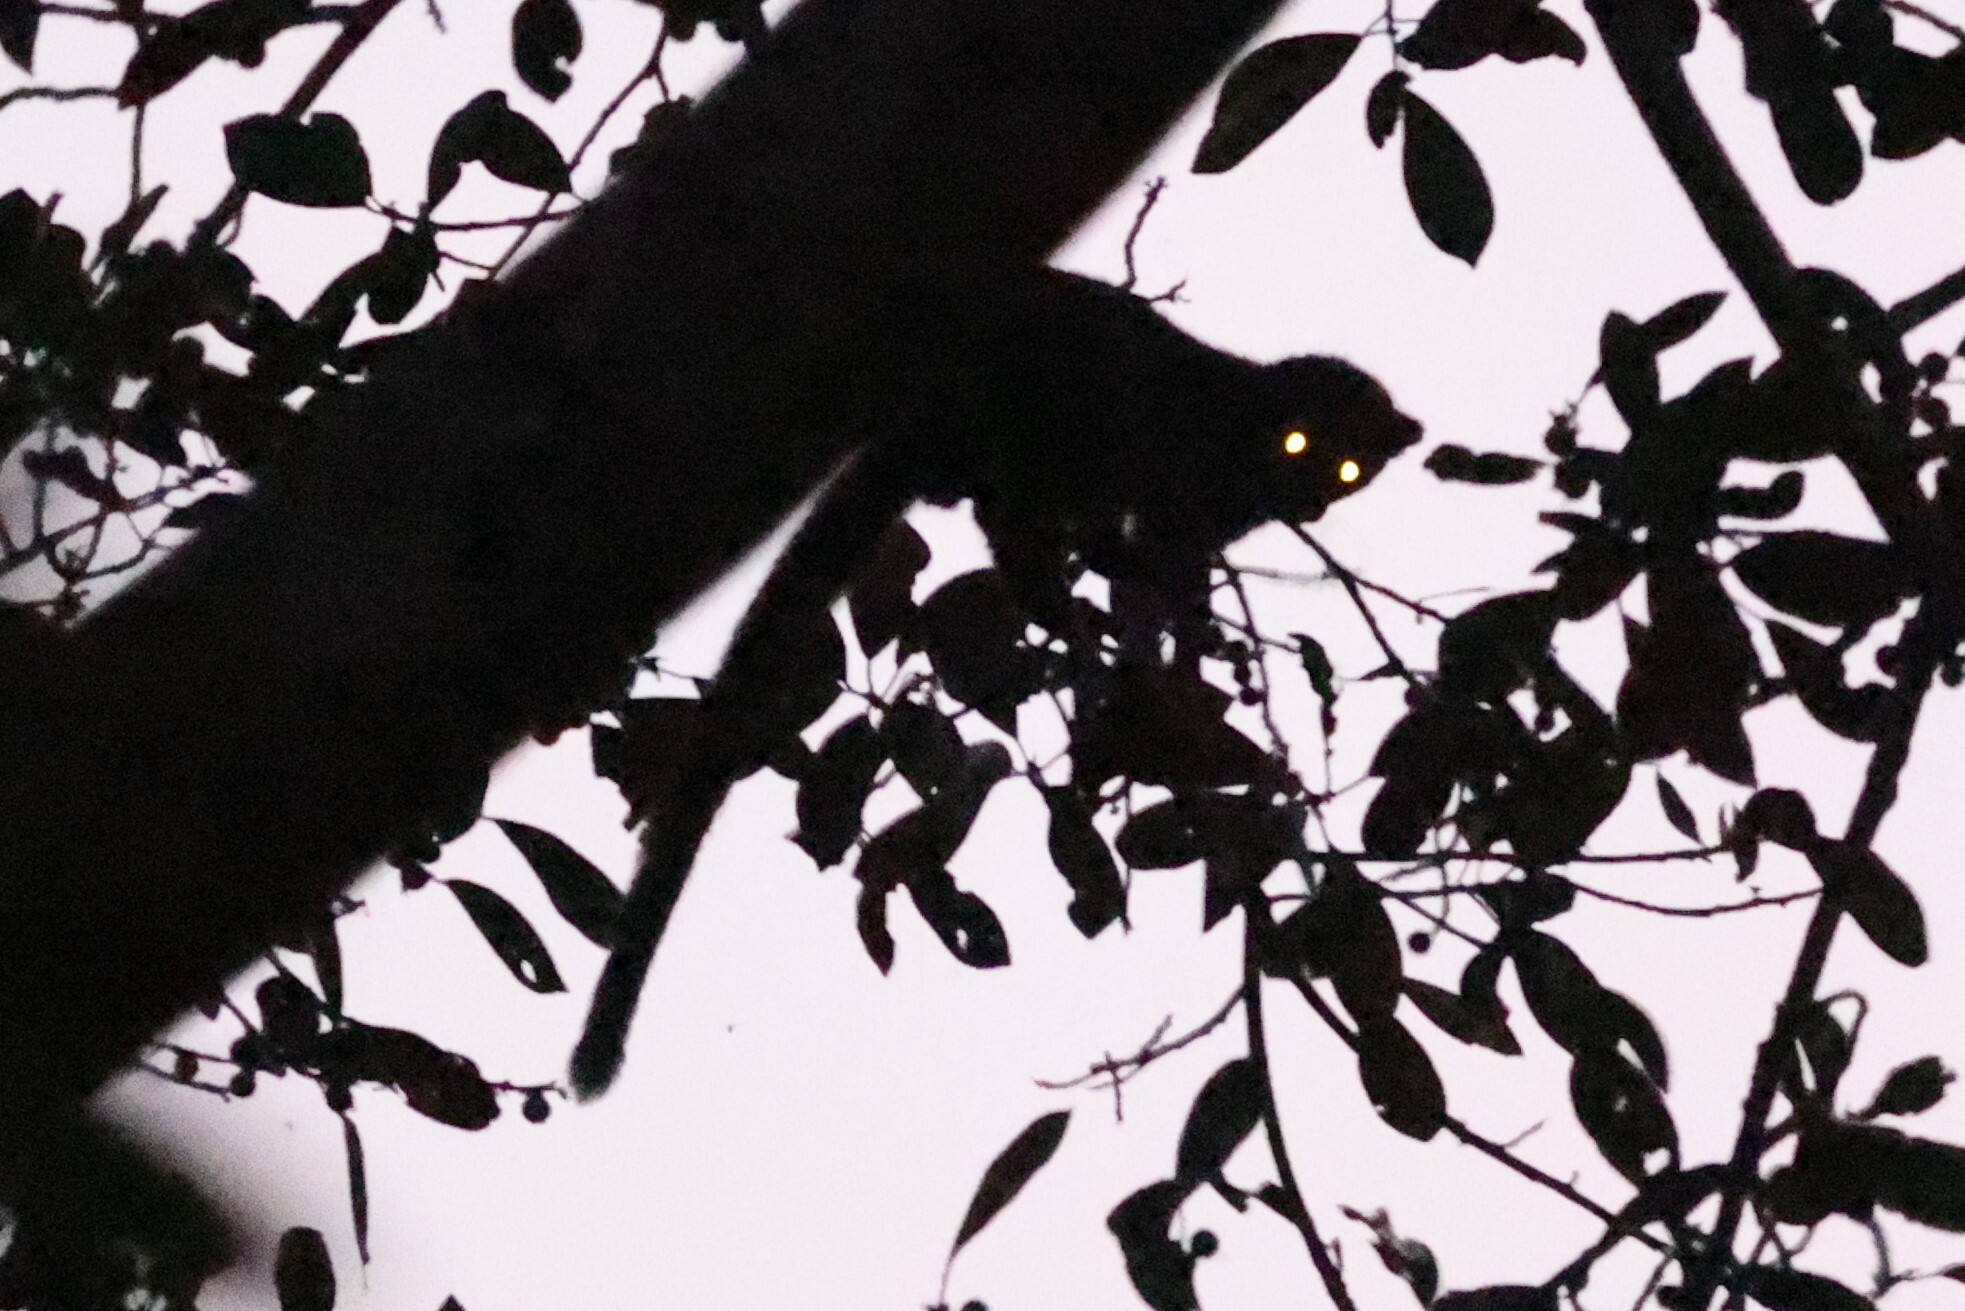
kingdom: Animalia
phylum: Chordata
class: Mammalia
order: Carnivora
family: Nandiniidae
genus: Nandinia
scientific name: Nandinia binotata
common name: African palm civet
